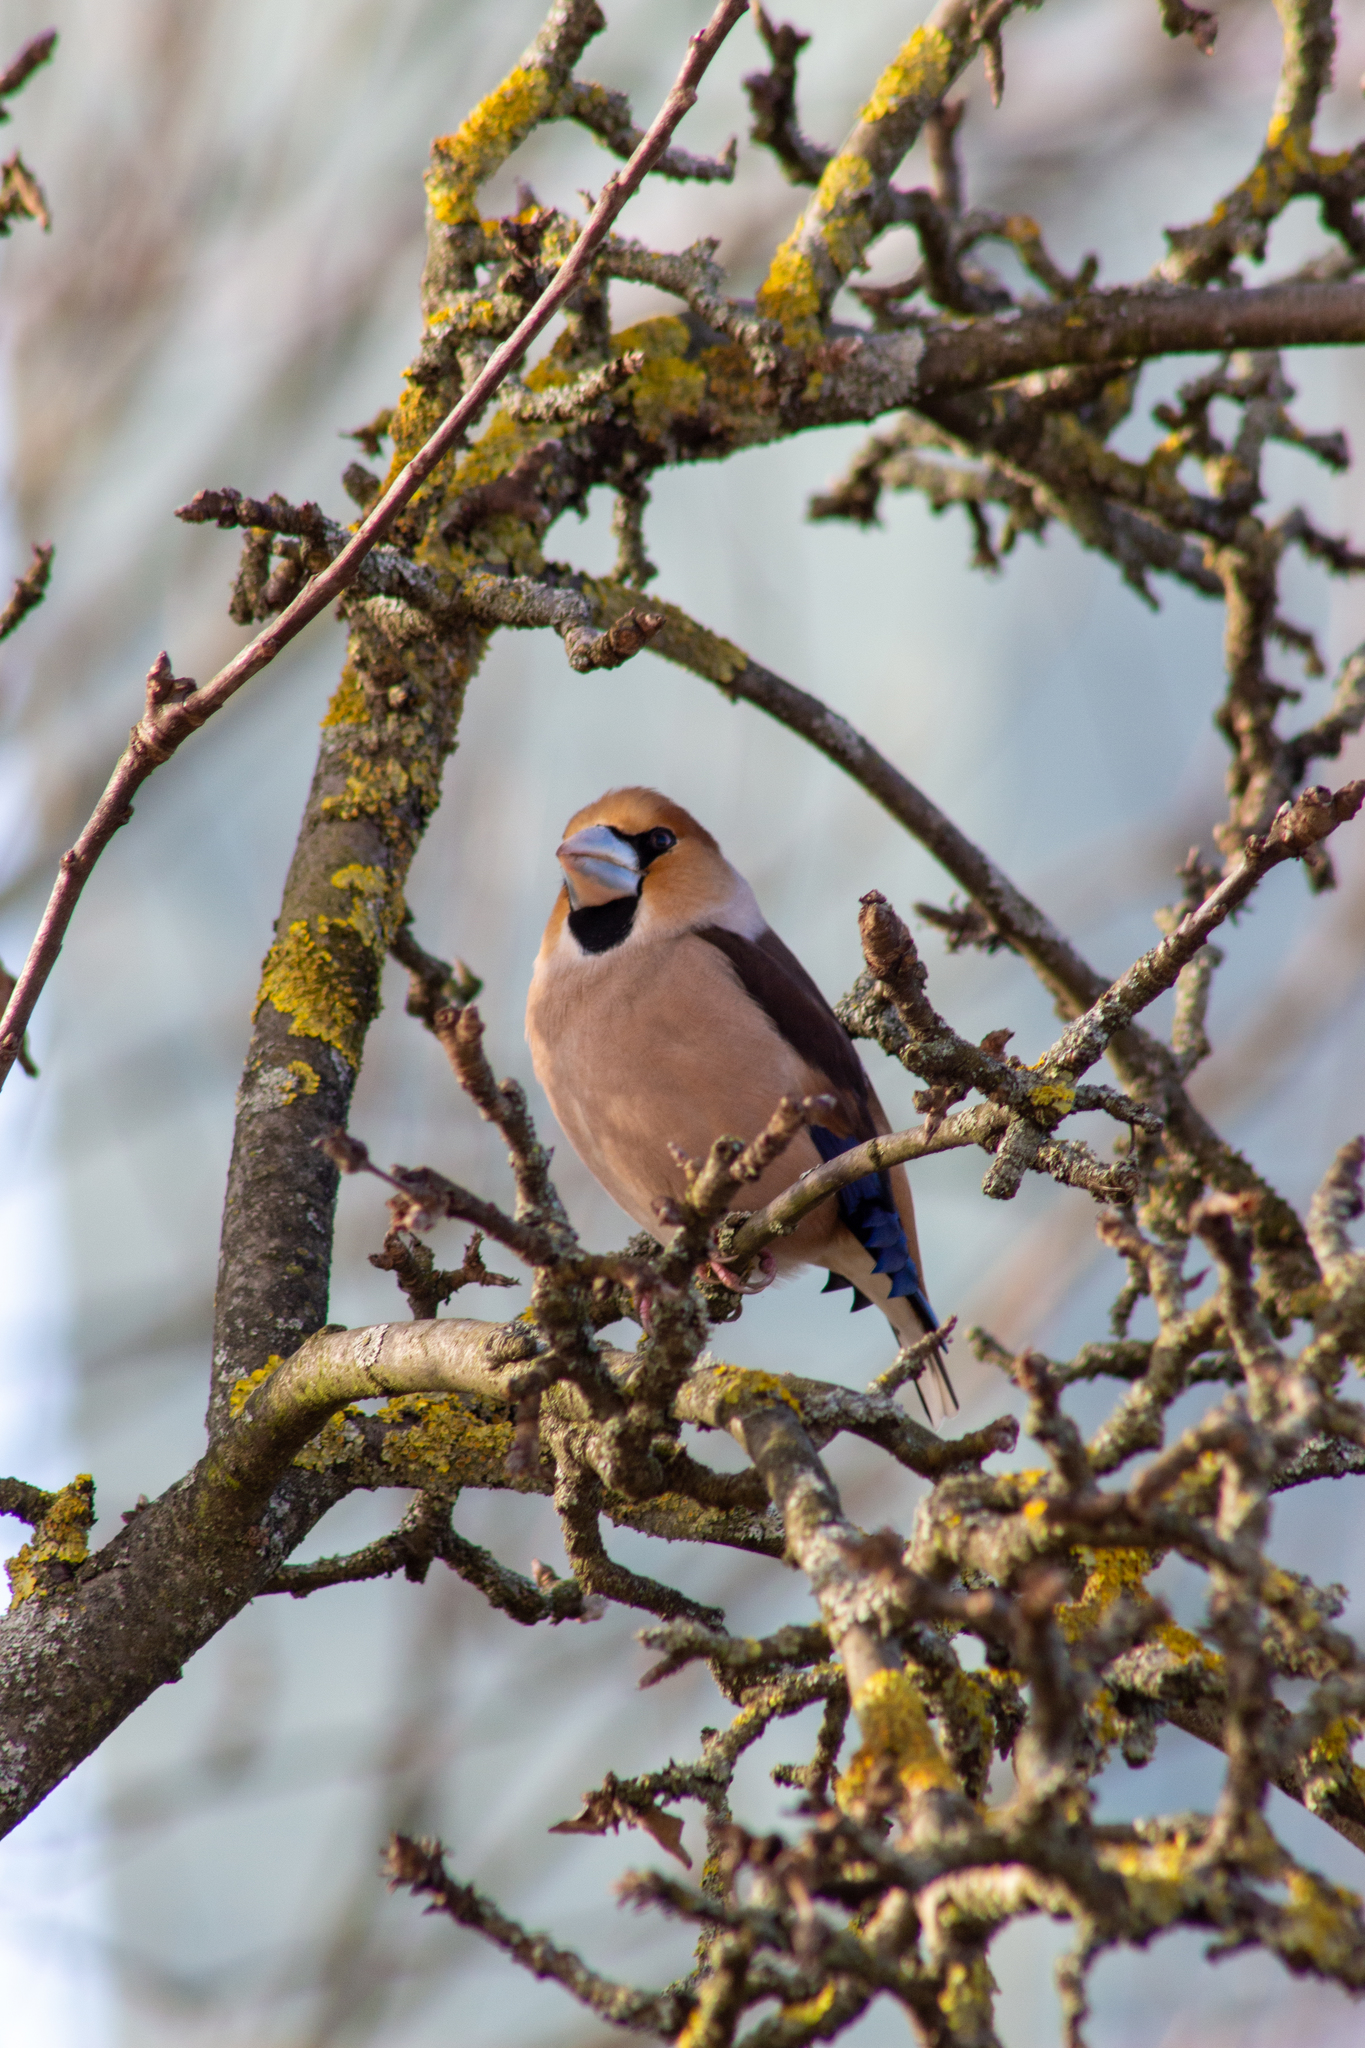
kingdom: Animalia
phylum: Chordata
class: Aves
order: Passeriformes
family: Fringillidae
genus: Coccothraustes
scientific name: Coccothraustes coccothraustes
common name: Hawfinch
